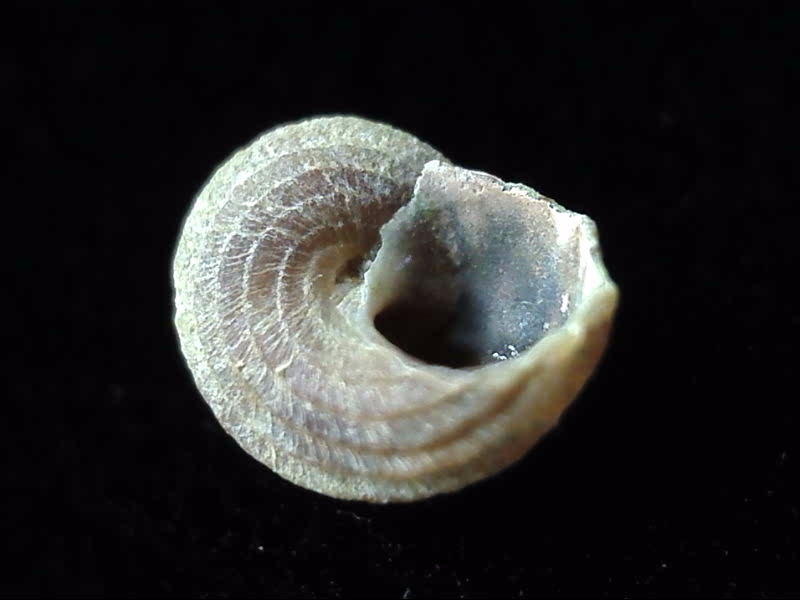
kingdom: Animalia
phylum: Mollusca
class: Gastropoda
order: Littorinimorpha
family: Littorinidae
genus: Risellopsis
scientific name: Risellopsis varia
